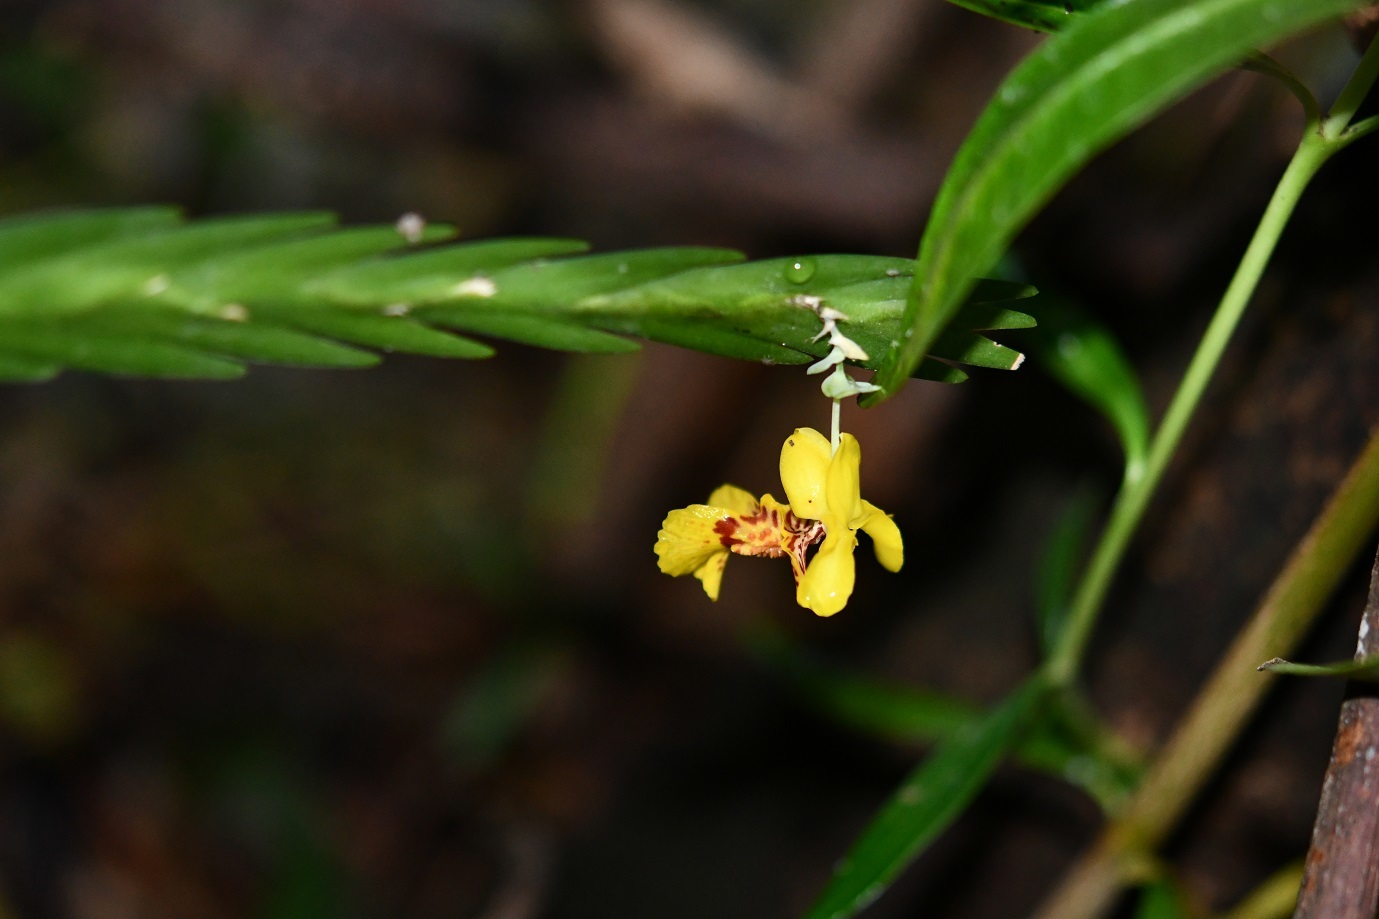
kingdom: Plantae
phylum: Tracheophyta
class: Liliopsida
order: Asparagales
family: Orchidaceae
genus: Lockhartia
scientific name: Lockhartia oerstedii
